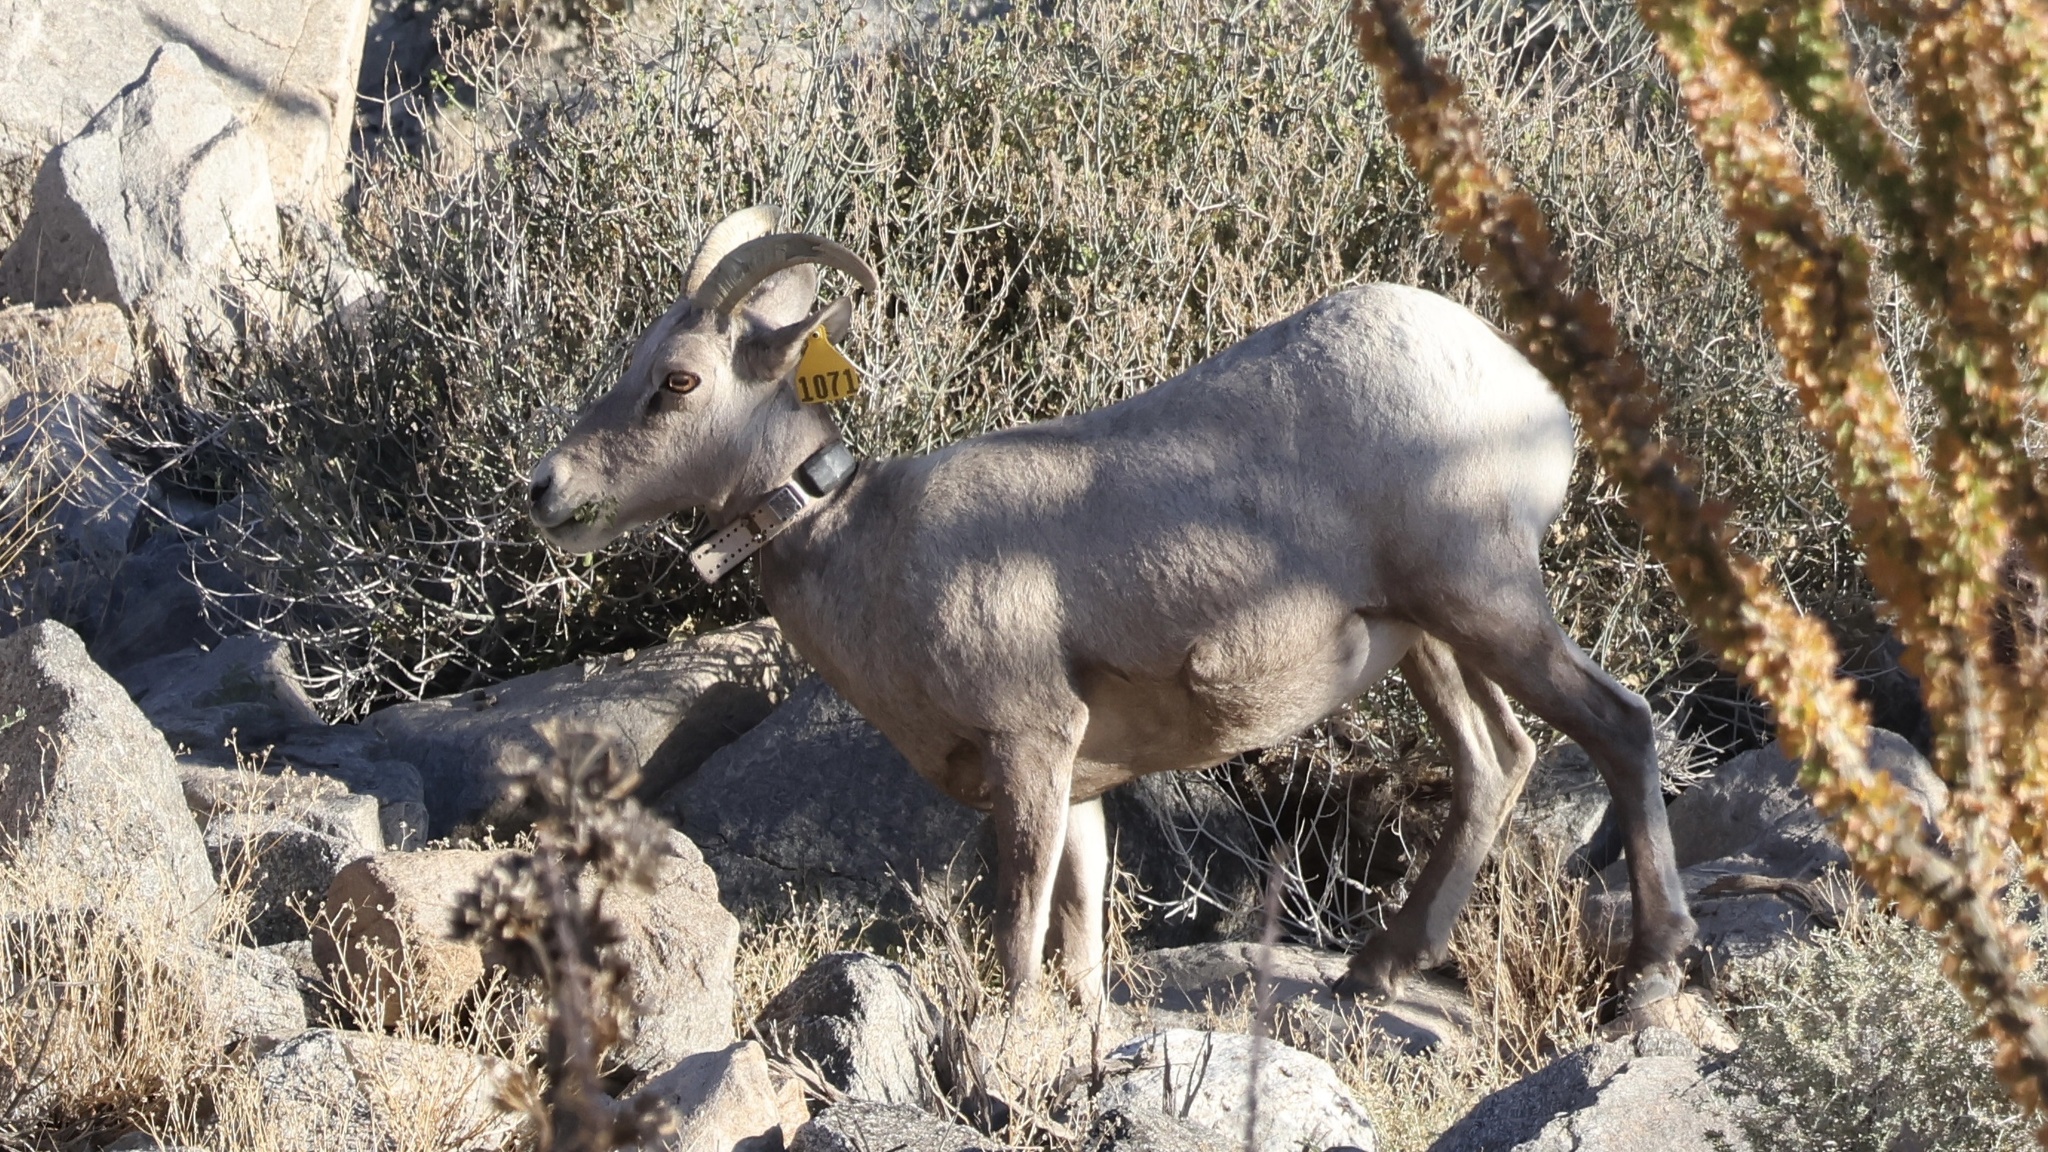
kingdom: Animalia
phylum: Chordata
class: Mammalia
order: Artiodactyla
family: Bovidae
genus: Ovis
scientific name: Ovis canadensis
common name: Bighorn sheep
